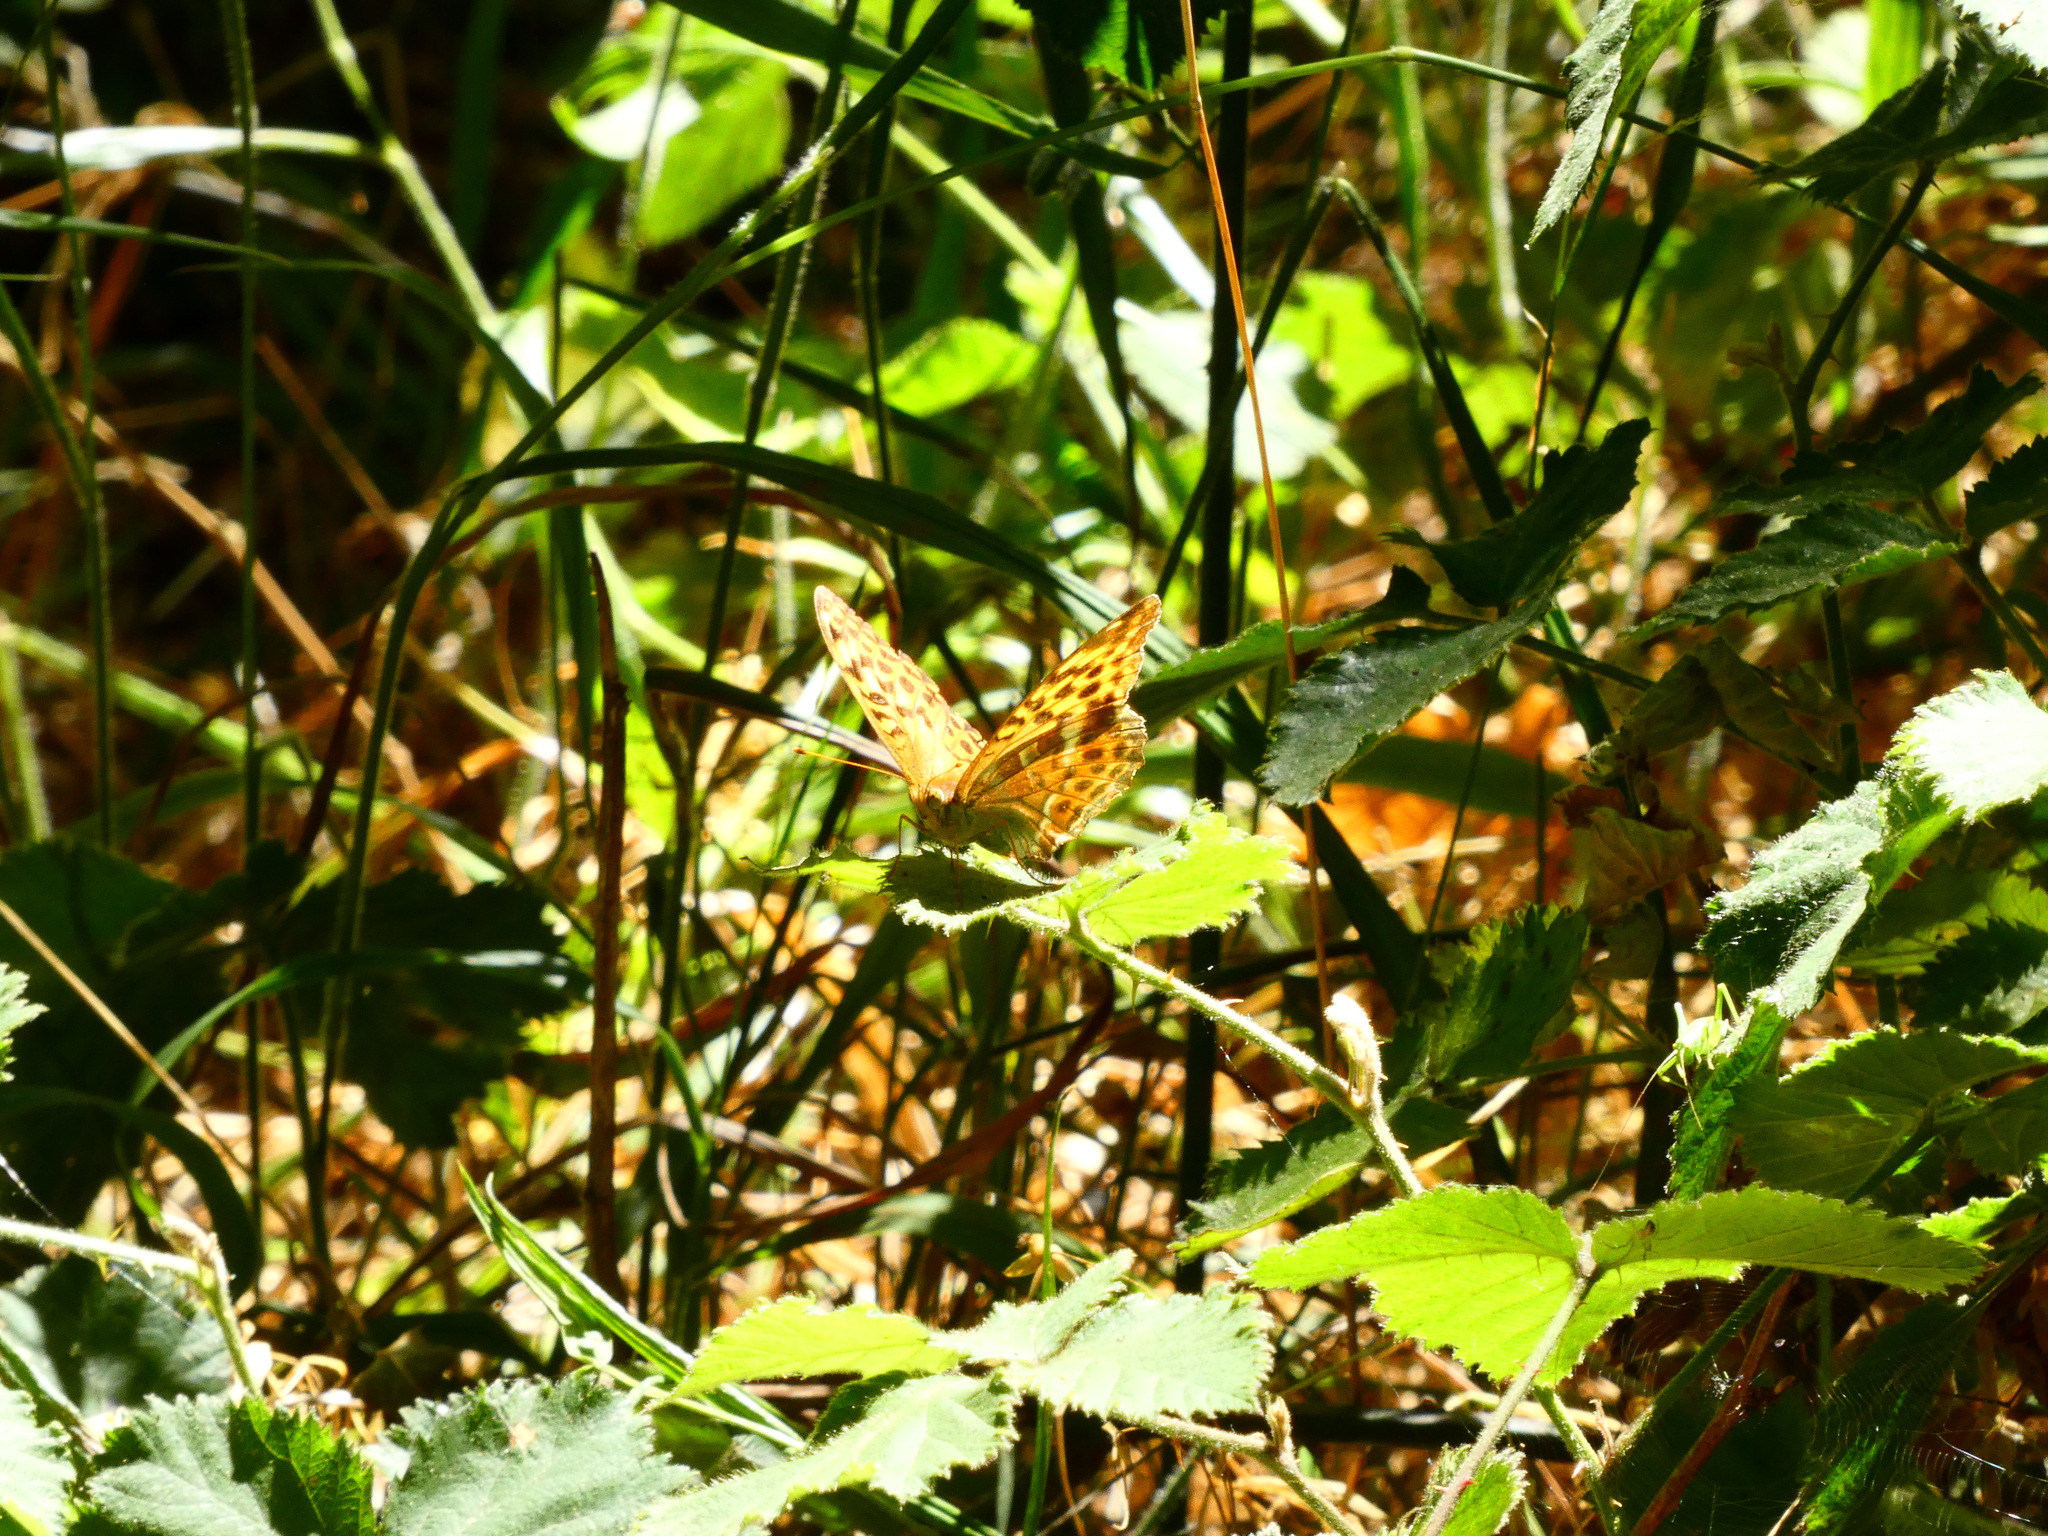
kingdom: Animalia
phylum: Arthropoda
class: Insecta
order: Lepidoptera
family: Nymphalidae
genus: Argynnis
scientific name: Argynnis paphia
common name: Silver-washed fritillary
